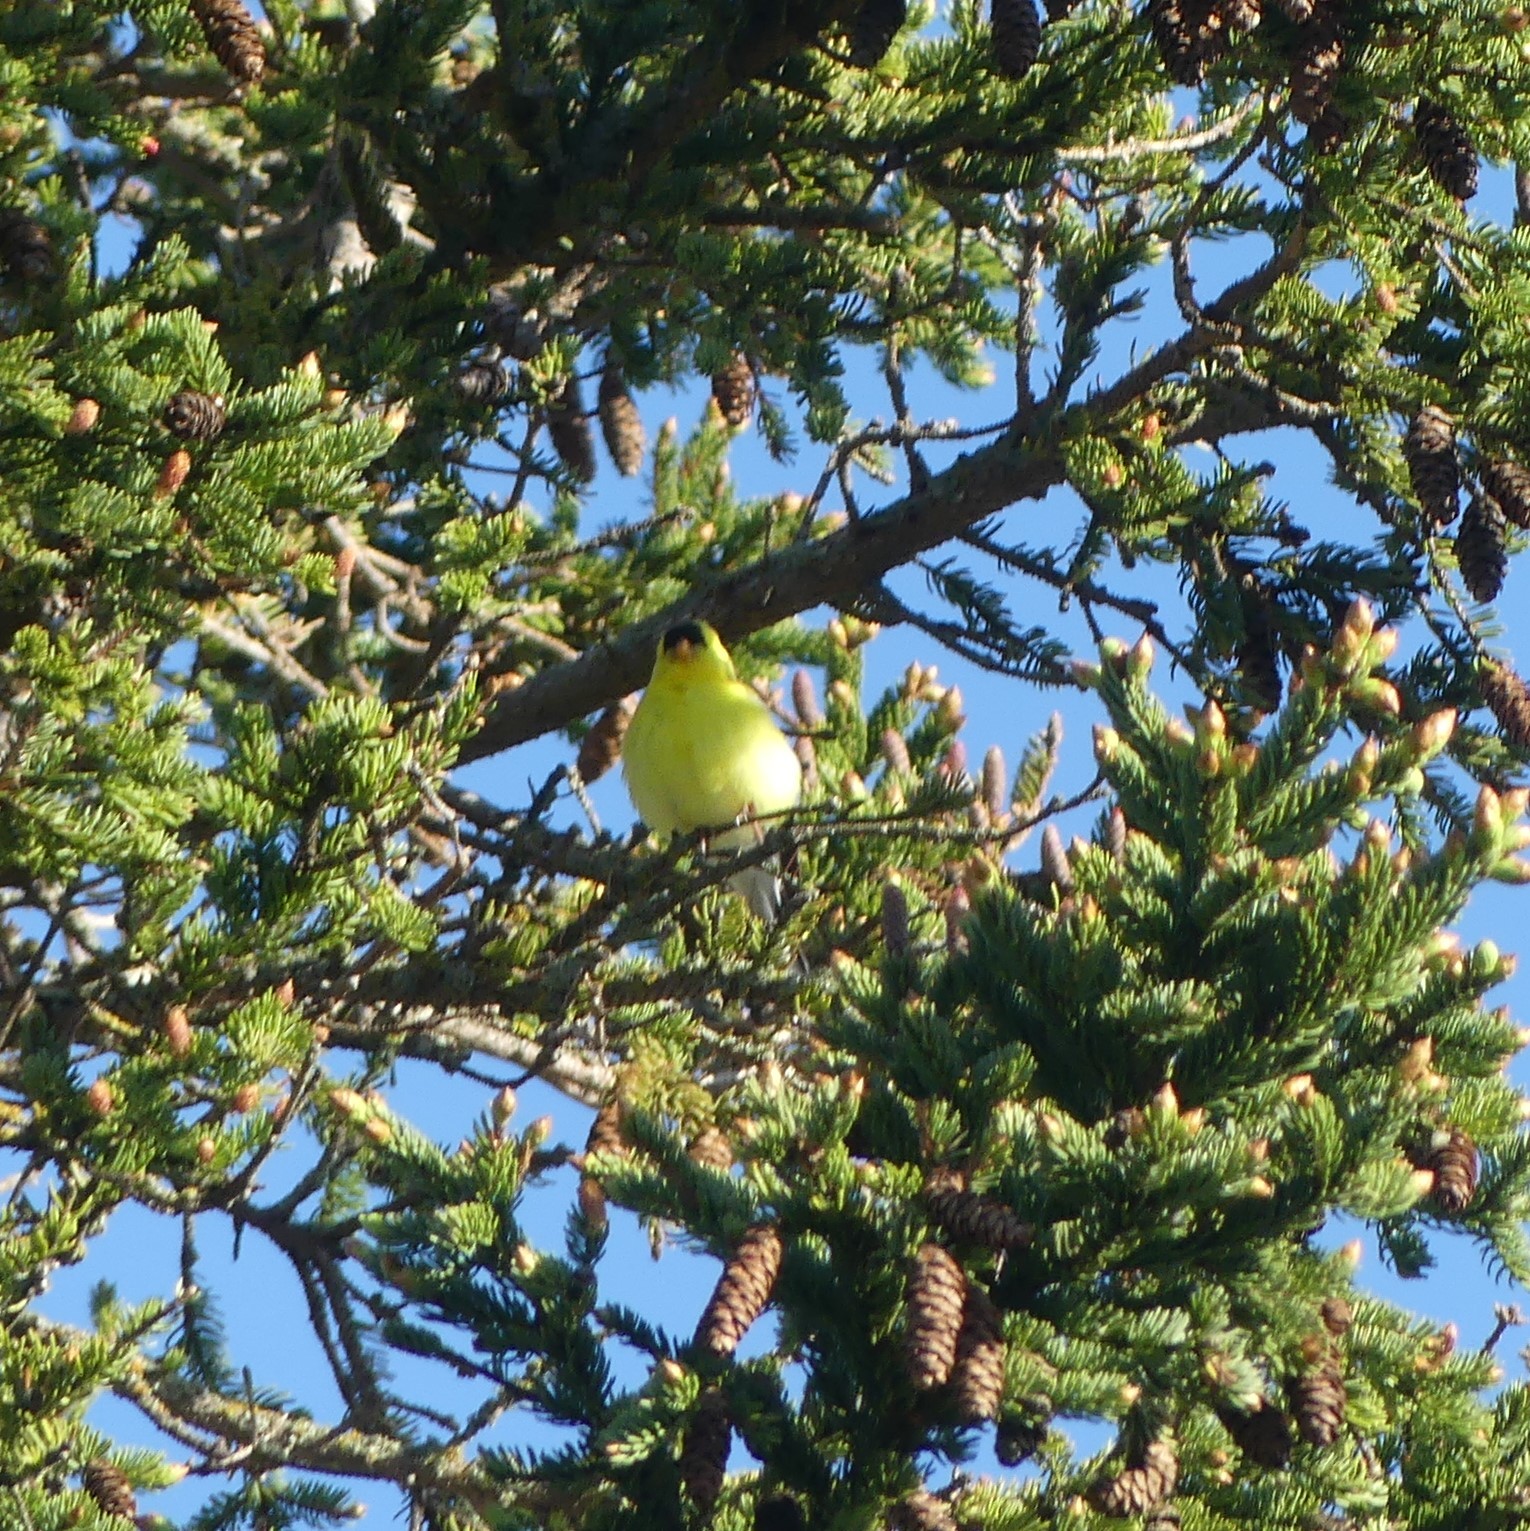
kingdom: Animalia
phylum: Chordata
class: Aves
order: Passeriformes
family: Fringillidae
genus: Spinus
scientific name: Spinus tristis
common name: American goldfinch
